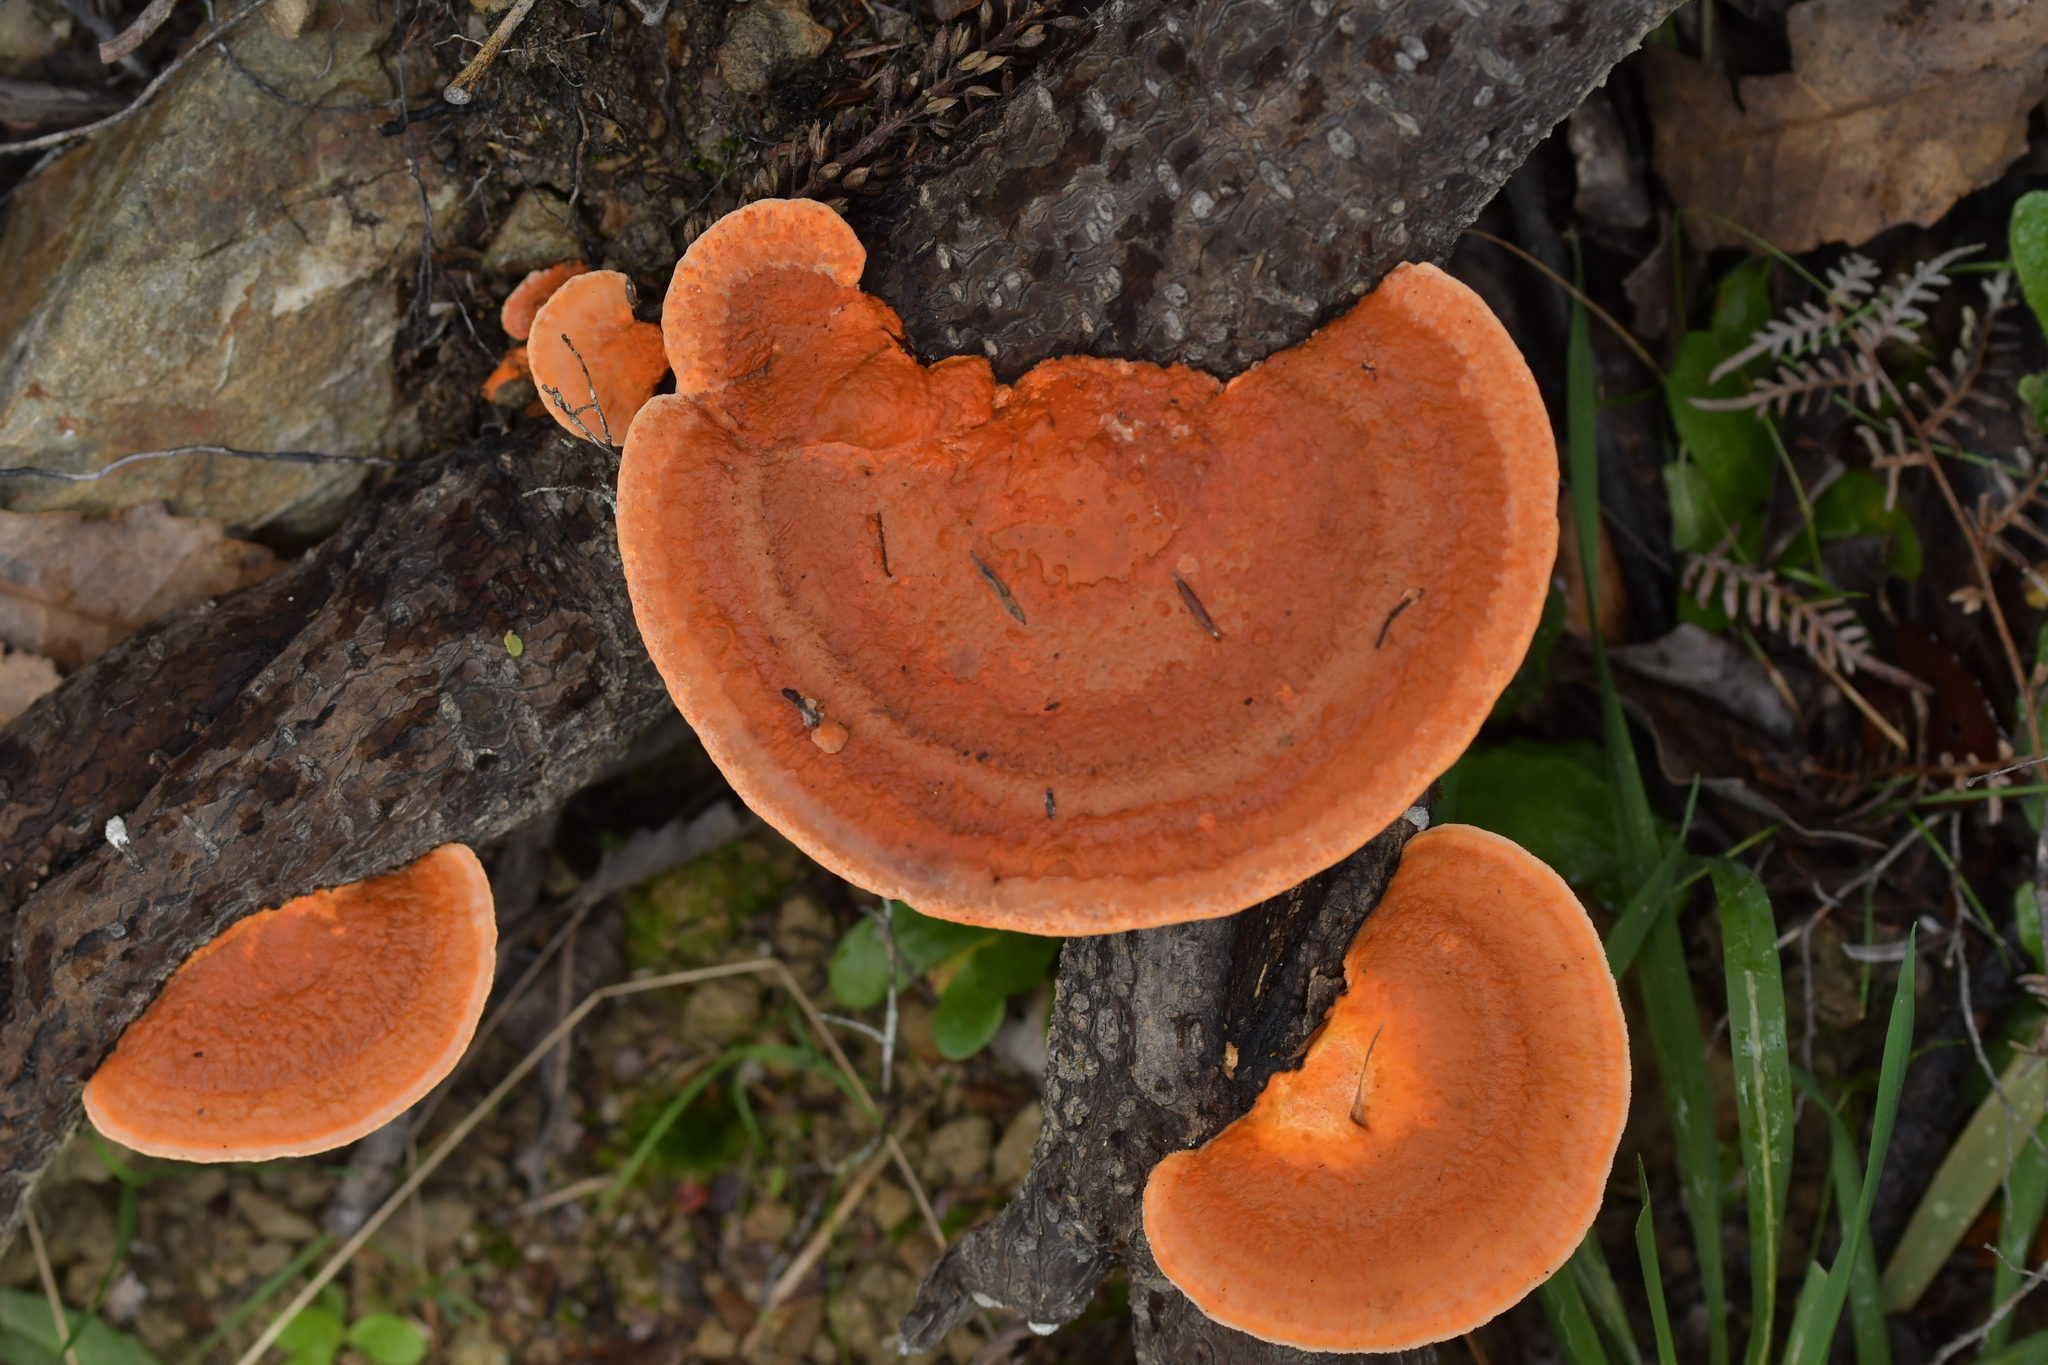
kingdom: Fungi
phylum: Basidiomycota
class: Agaricomycetes
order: Polyporales
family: Polyporaceae
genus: Trametes
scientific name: Trametes coccinea
